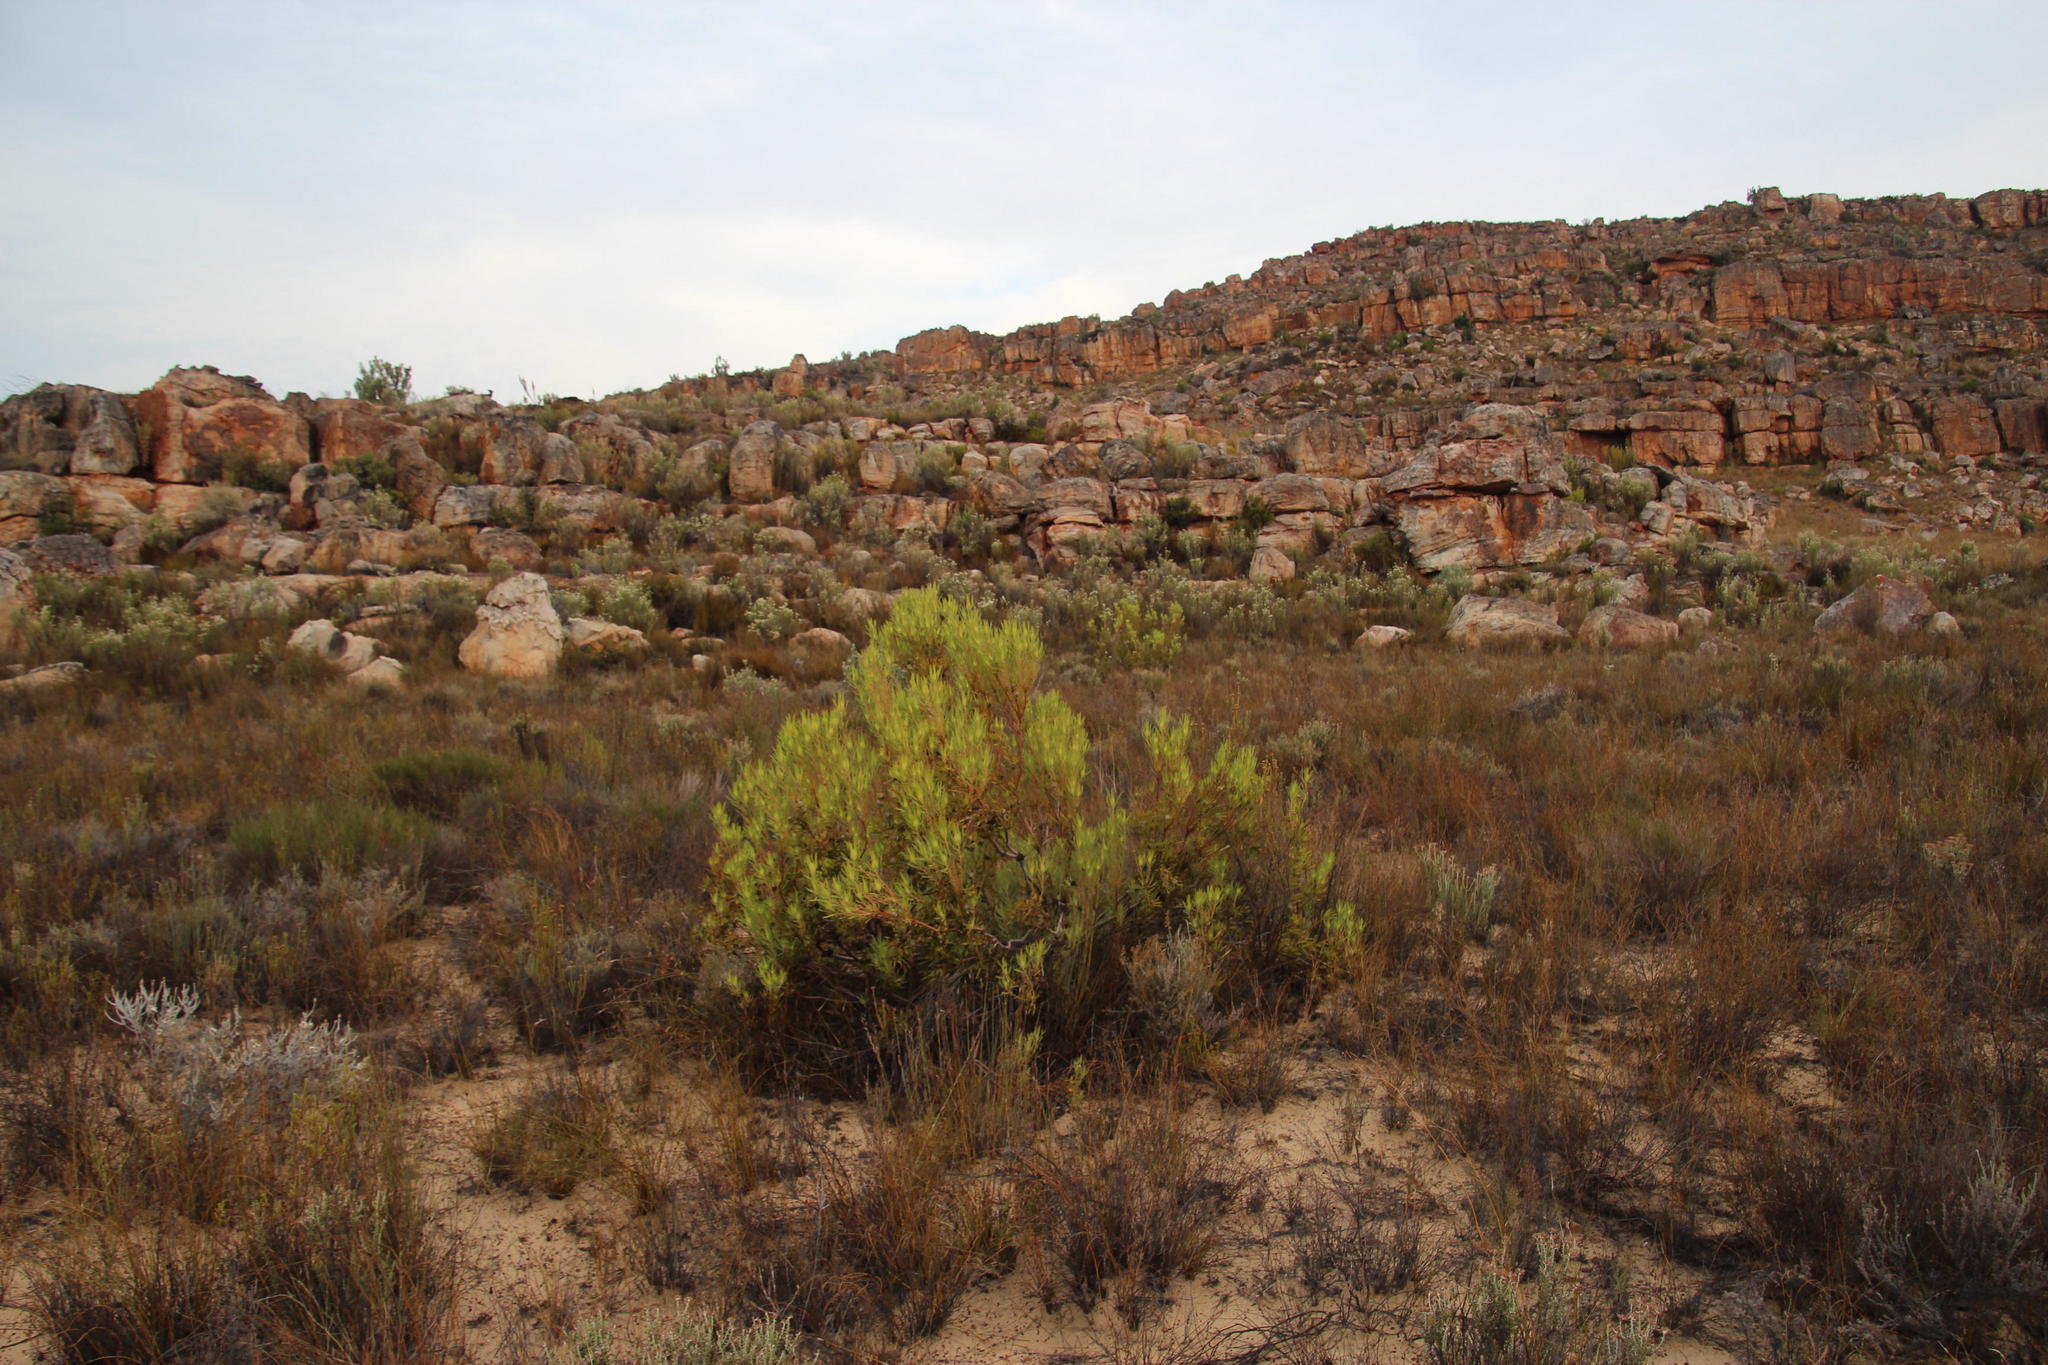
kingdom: Plantae
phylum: Tracheophyta
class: Magnoliopsida
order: Proteales
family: Proteaceae
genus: Leucadendron
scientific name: Leucadendron salignum
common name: Common sunshine conebush
